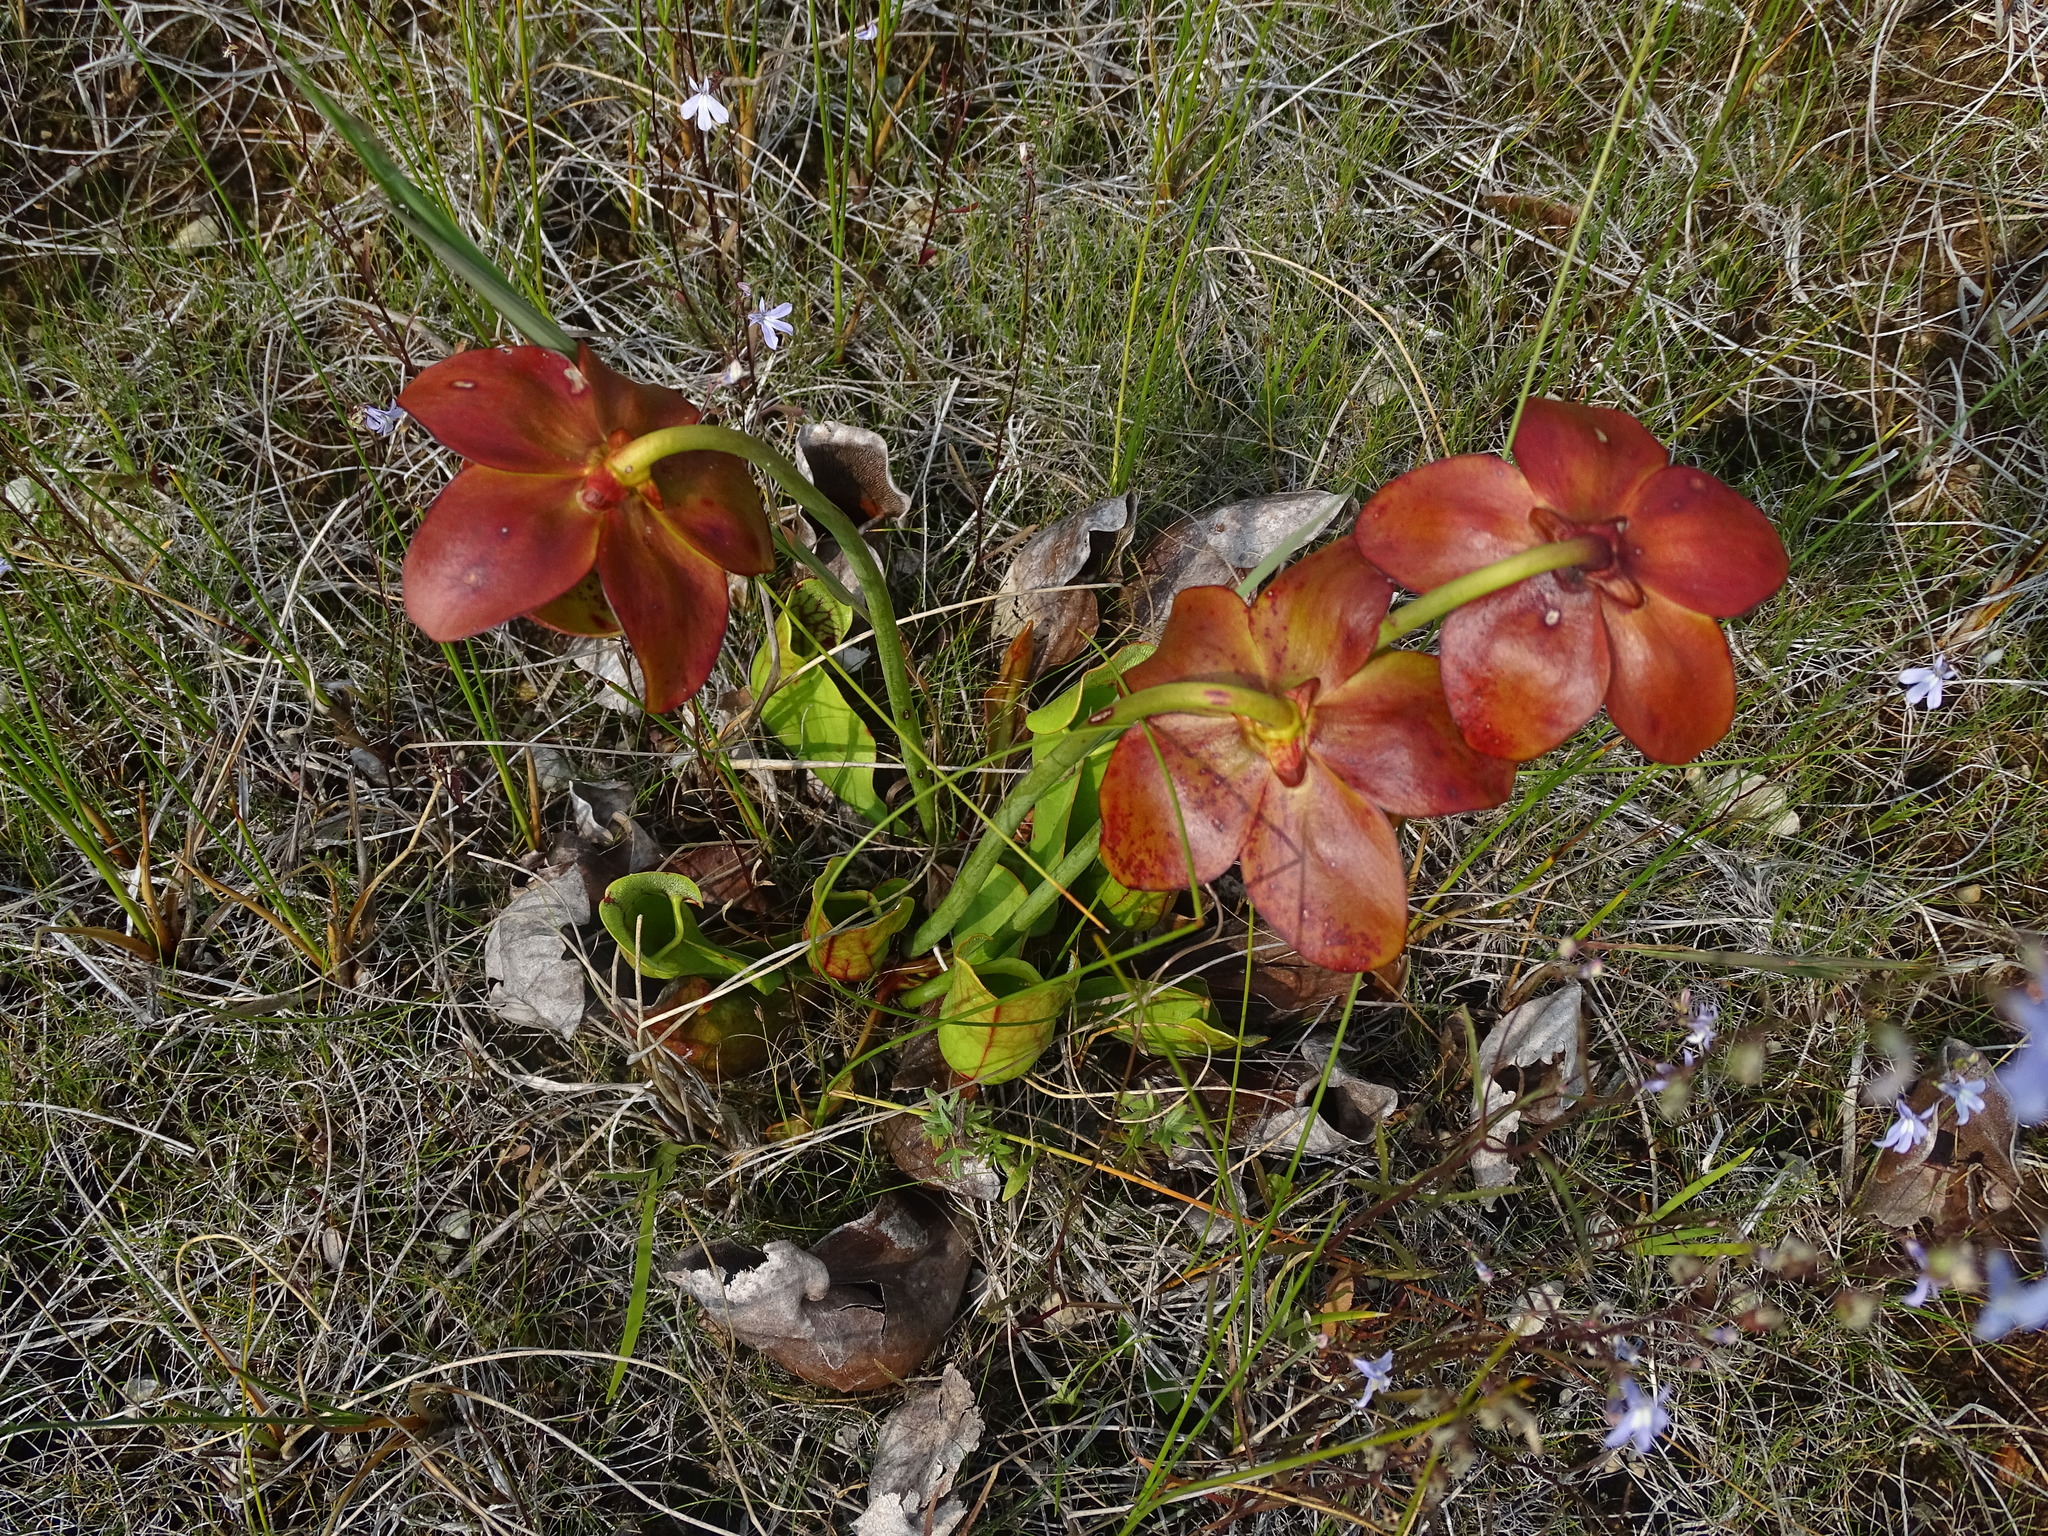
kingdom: Plantae
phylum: Tracheophyta
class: Magnoliopsida
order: Ericales
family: Sarraceniaceae
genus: Sarracenia
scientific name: Sarracenia purpurea
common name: Pitcherplant
